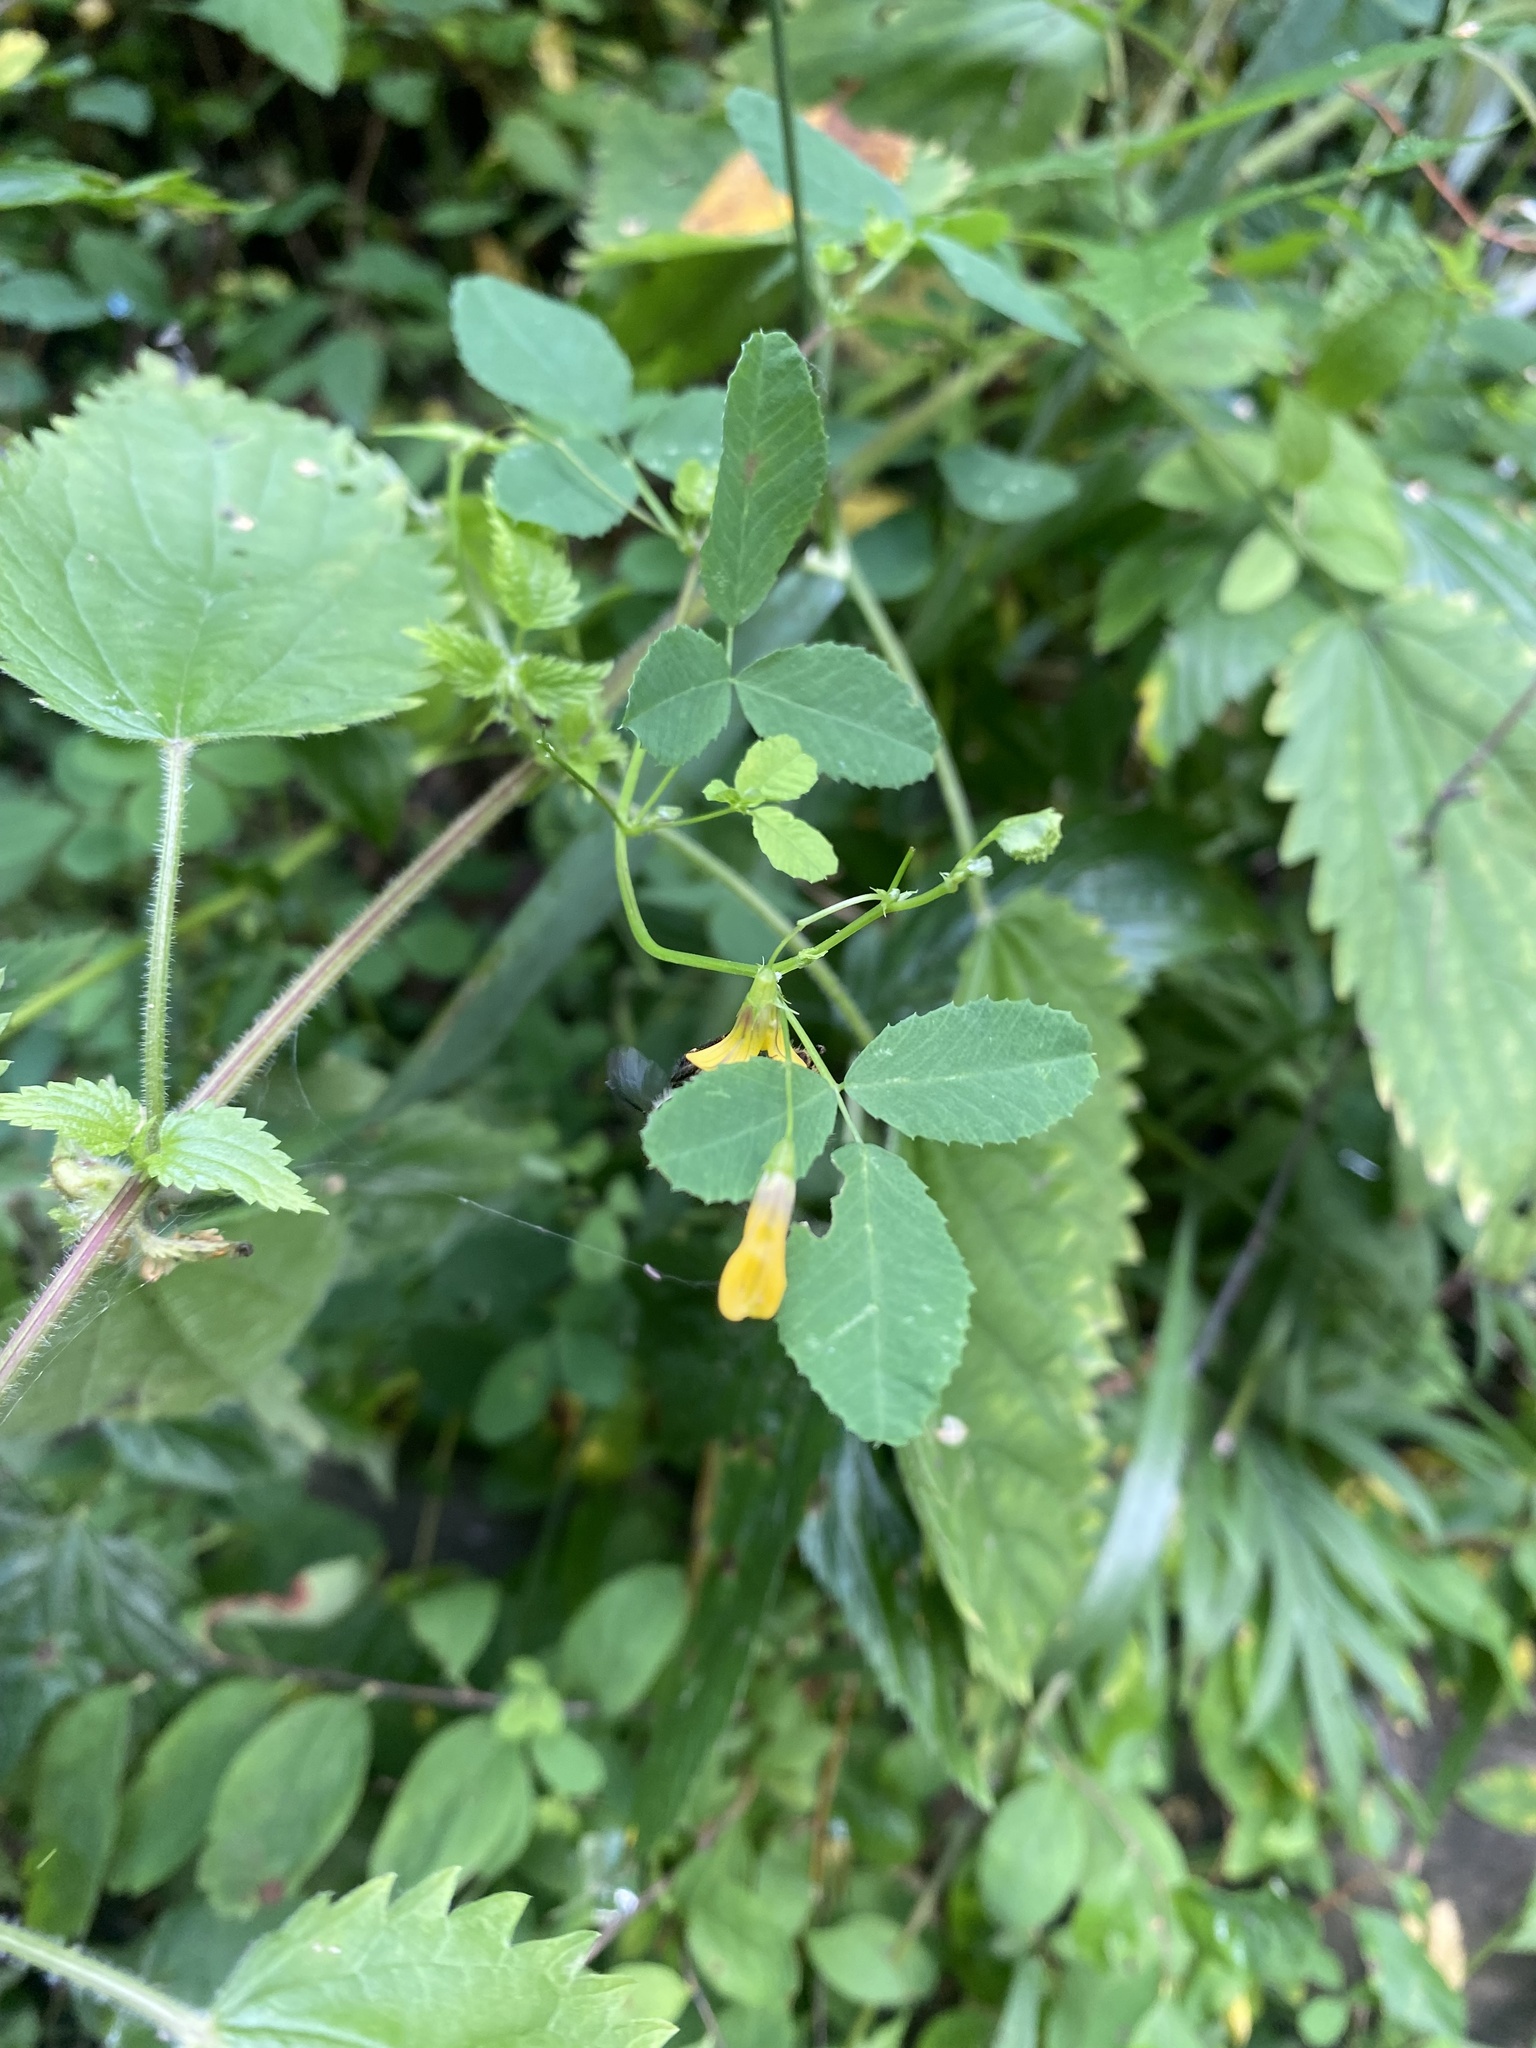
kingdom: Plantae
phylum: Tracheophyta
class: Magnoliopsida
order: Fabales
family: Fabaceae
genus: Medicago
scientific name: Medicago platycarpos
